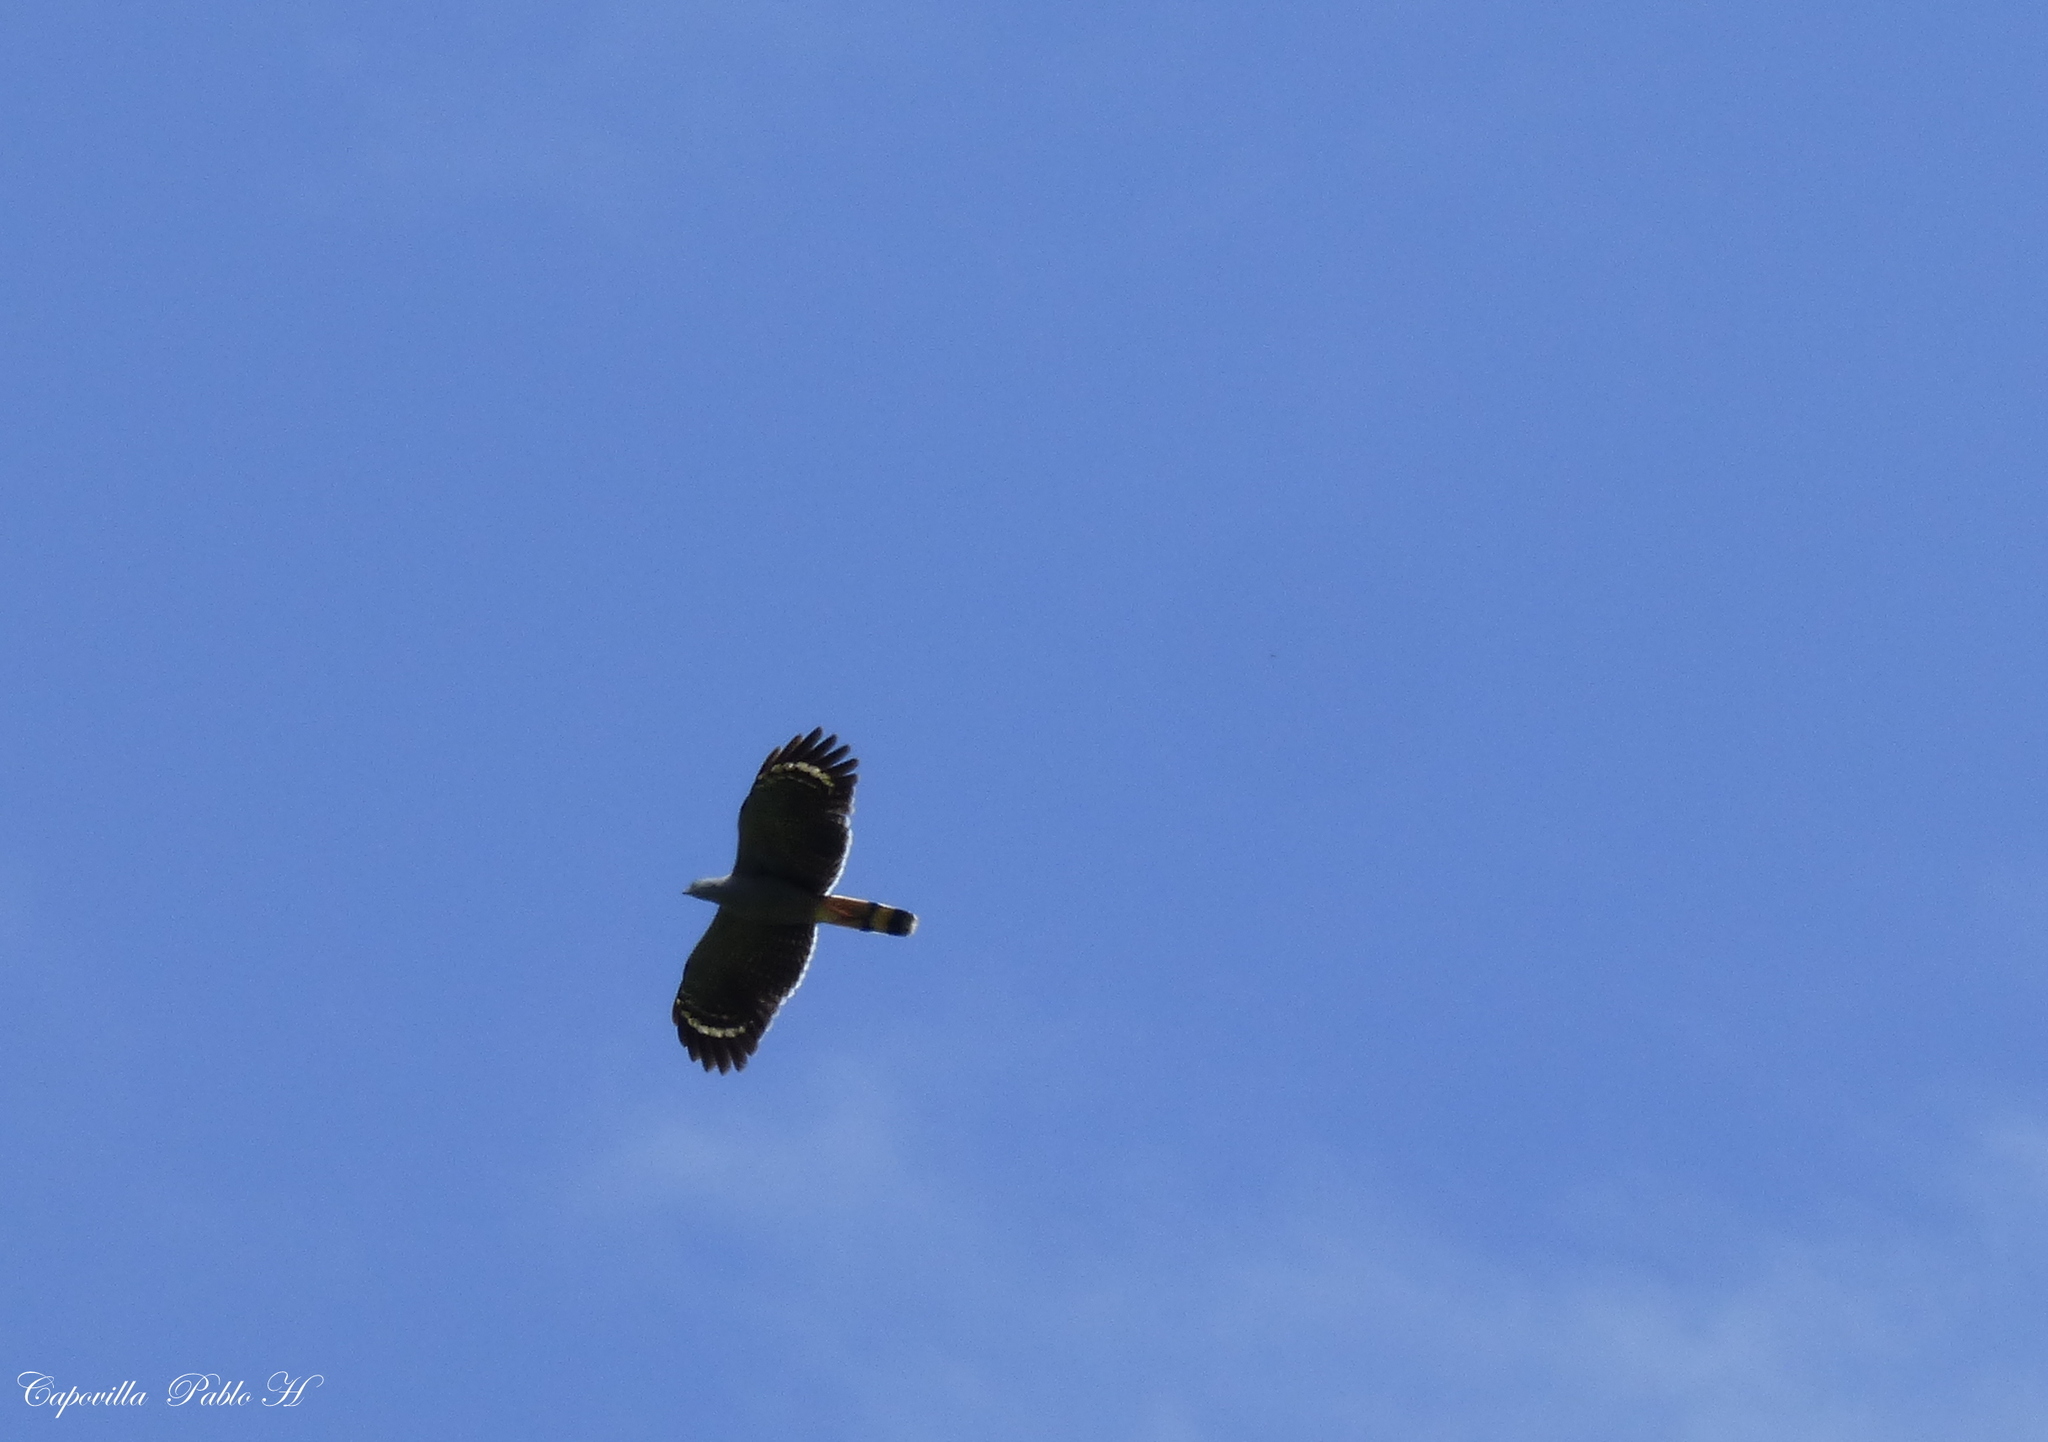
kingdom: Animalia
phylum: Chordata
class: Aves
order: Accipitriformes
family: Accipitridae
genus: Geranospiza
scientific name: Geranospiza caerulescens
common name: Crane hawk
